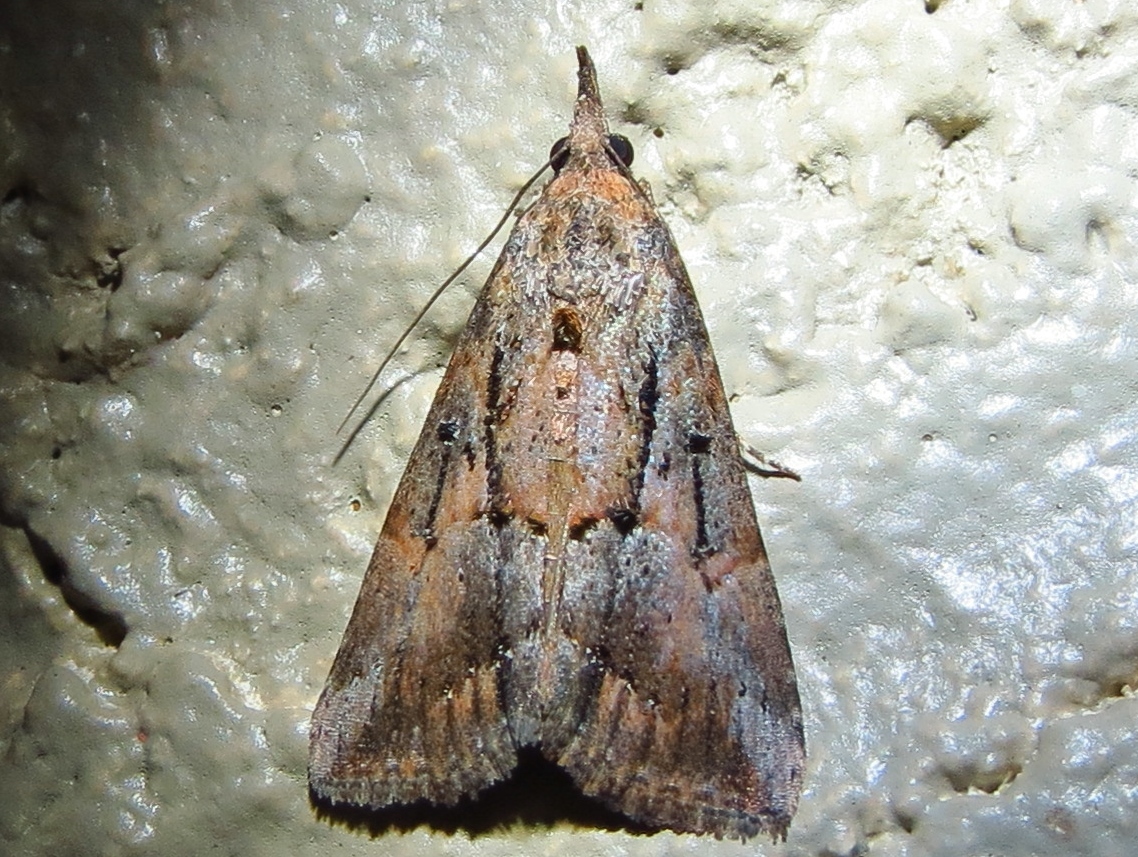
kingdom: Animalia
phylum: Arthropoda
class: Insecta
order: Lepidoptera
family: Erebidae
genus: Hypena
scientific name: Hypena scabra
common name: Green cloverworm
